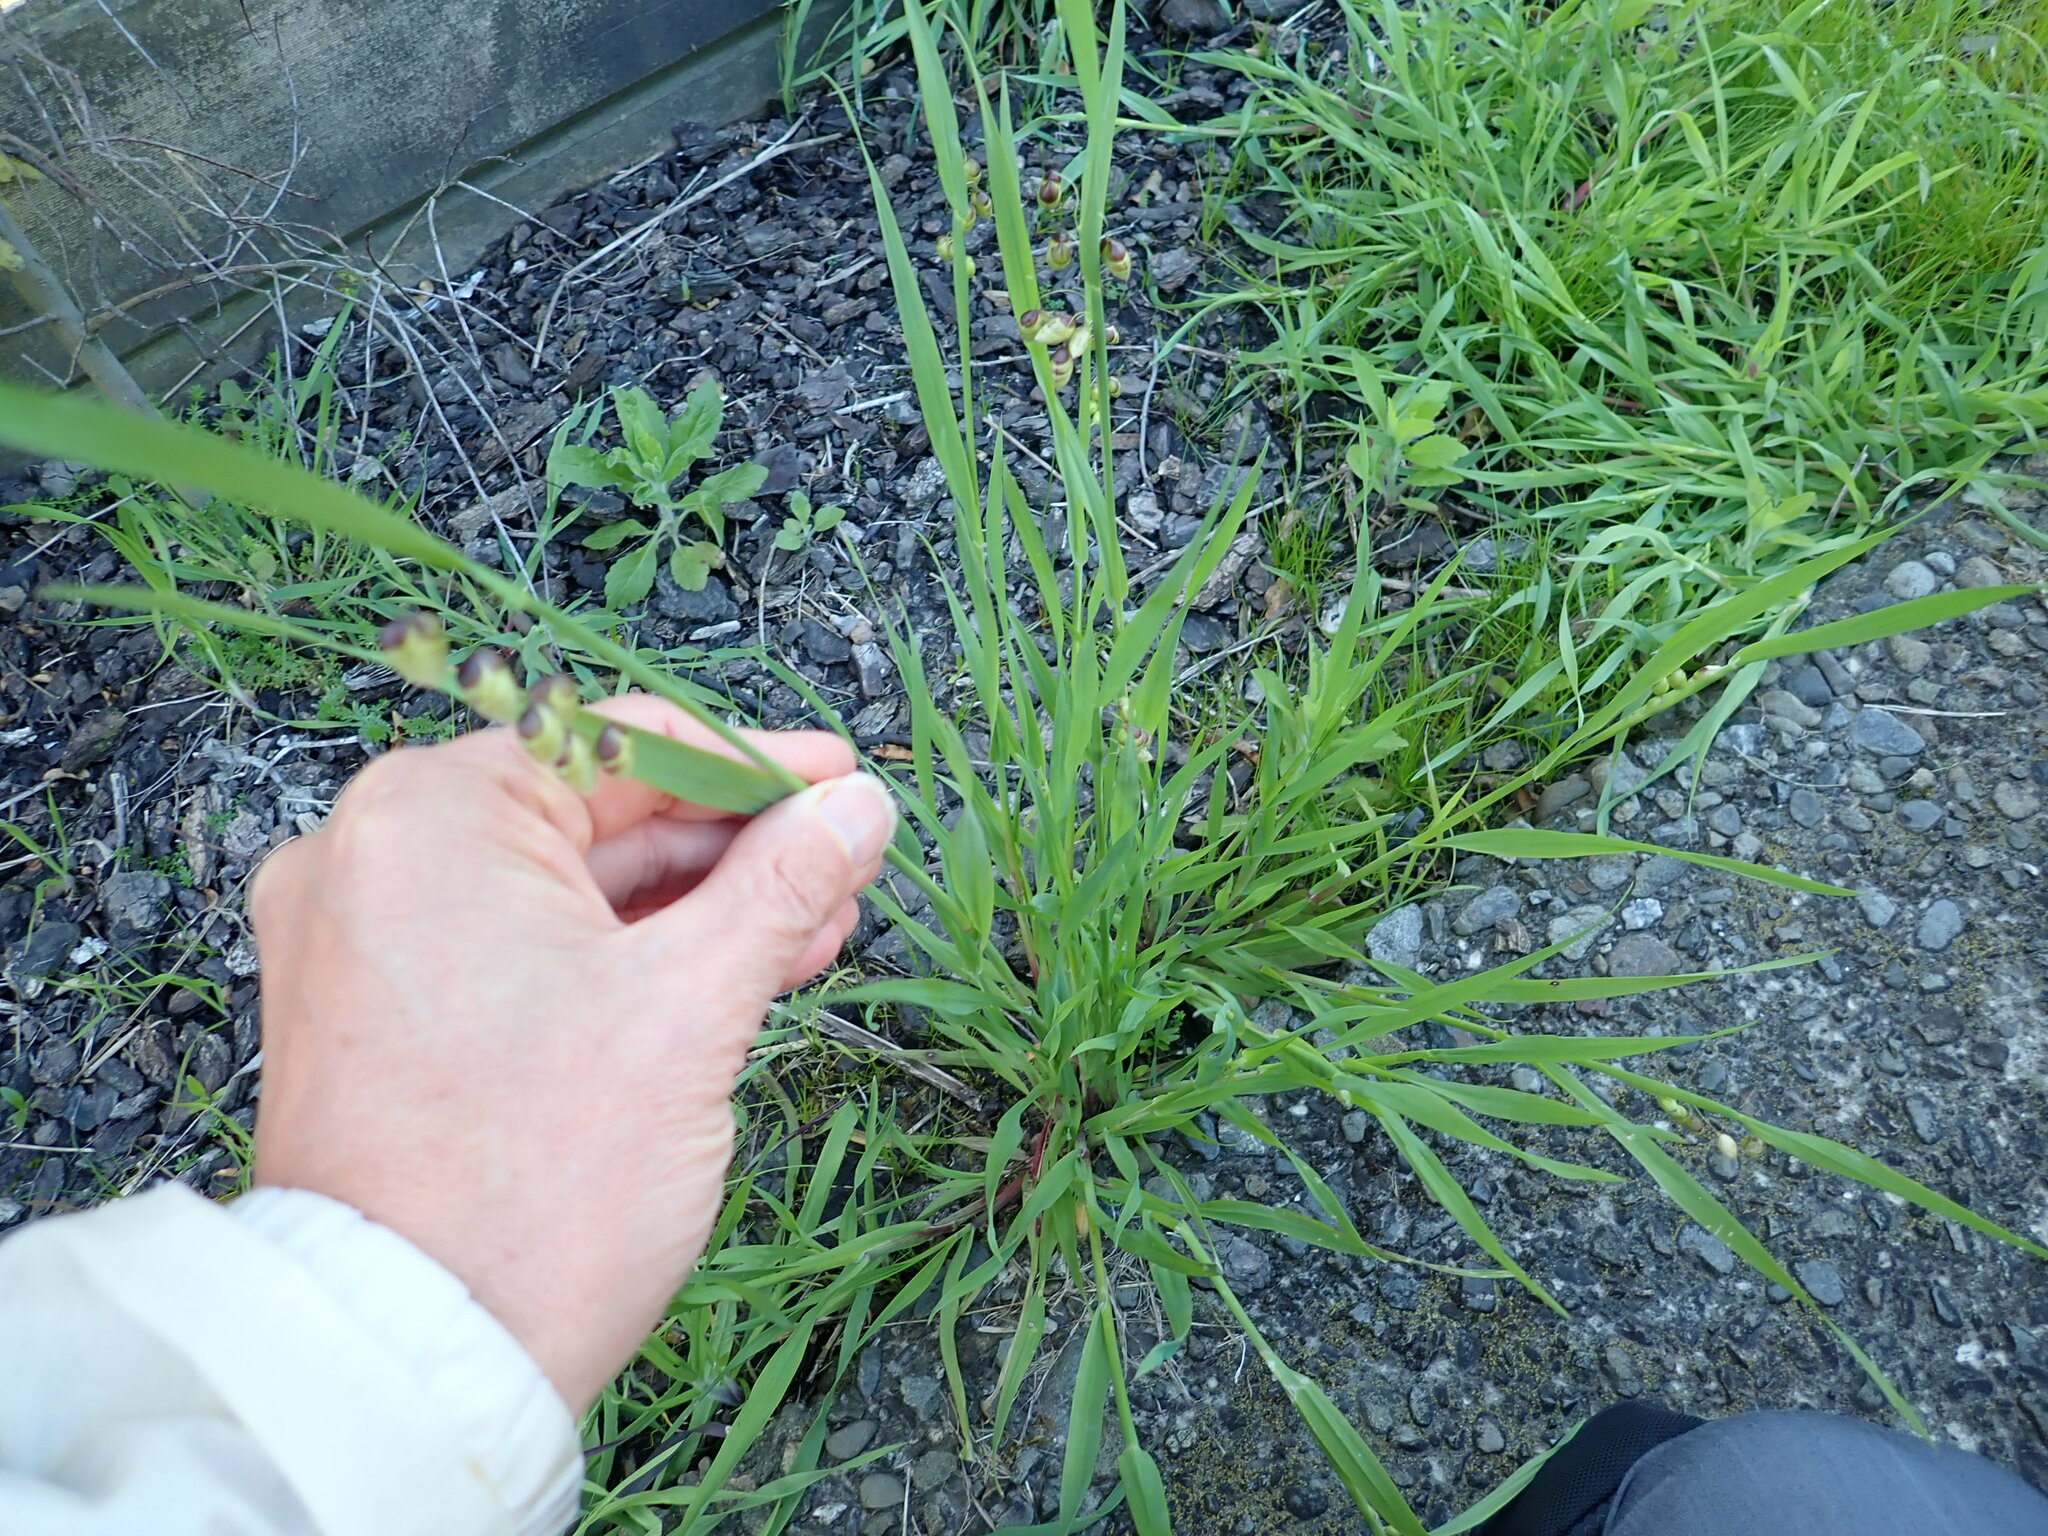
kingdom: Plantae
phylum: Tracheophyta
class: Liliopsida
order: Poales
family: Poaceae
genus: Briza
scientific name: Briza maxima
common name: Big quakinggrass
